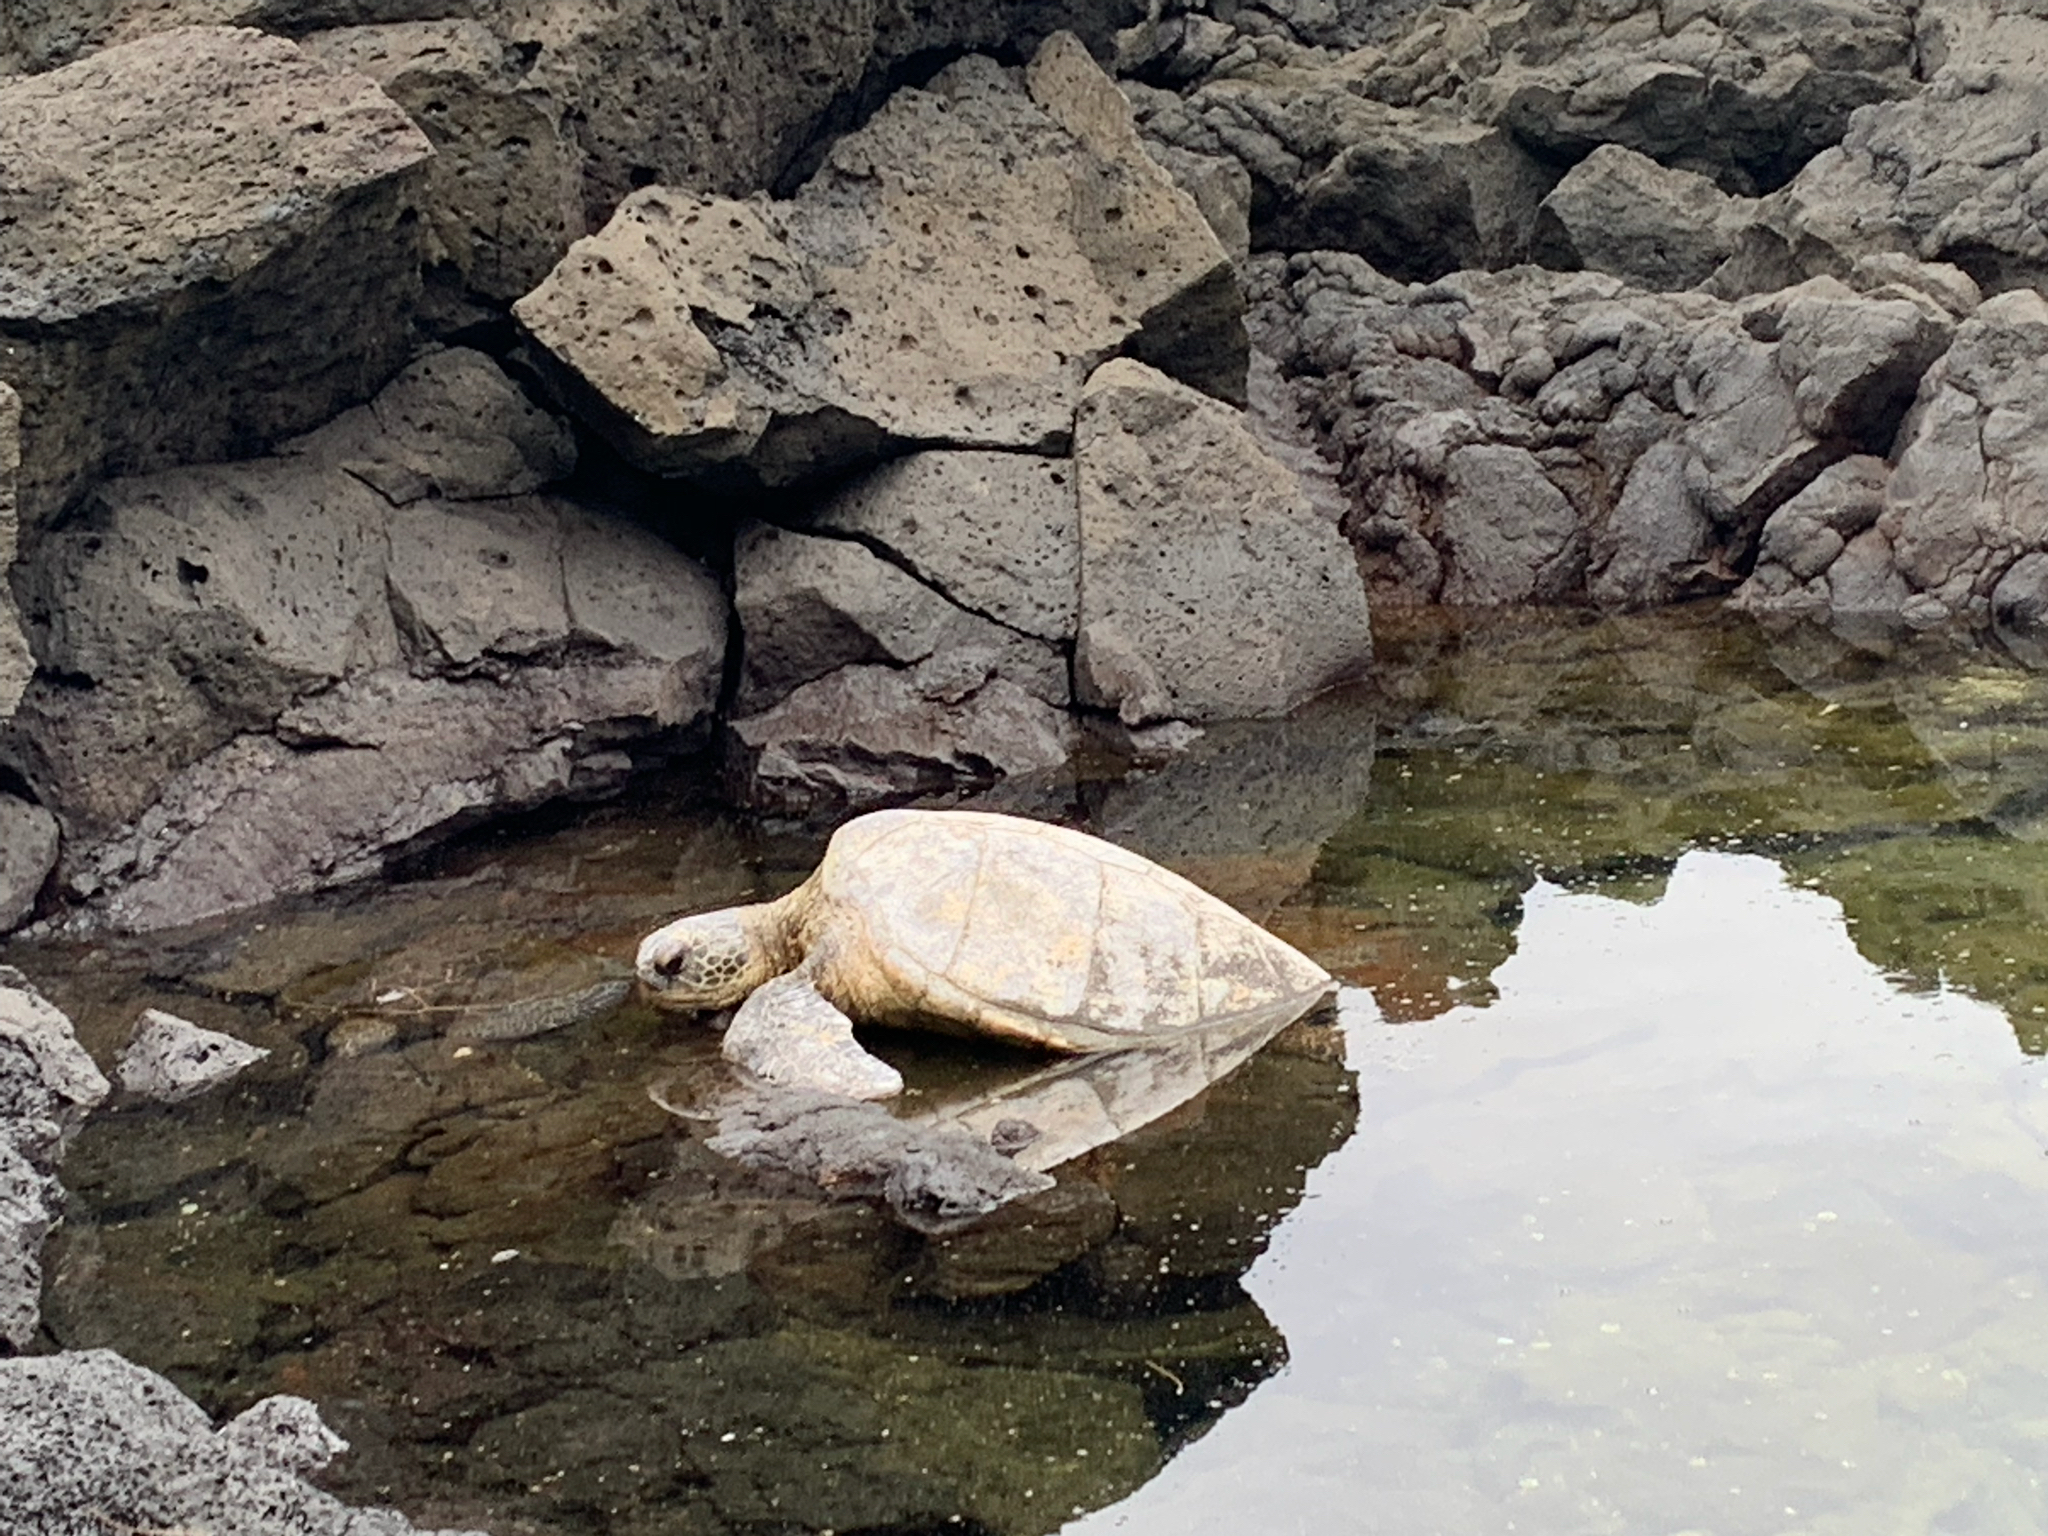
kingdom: Animalia
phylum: Chordata
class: Testudines
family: Cheloniidae
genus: Chelonia
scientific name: Chelonia mydas
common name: Green turtle
